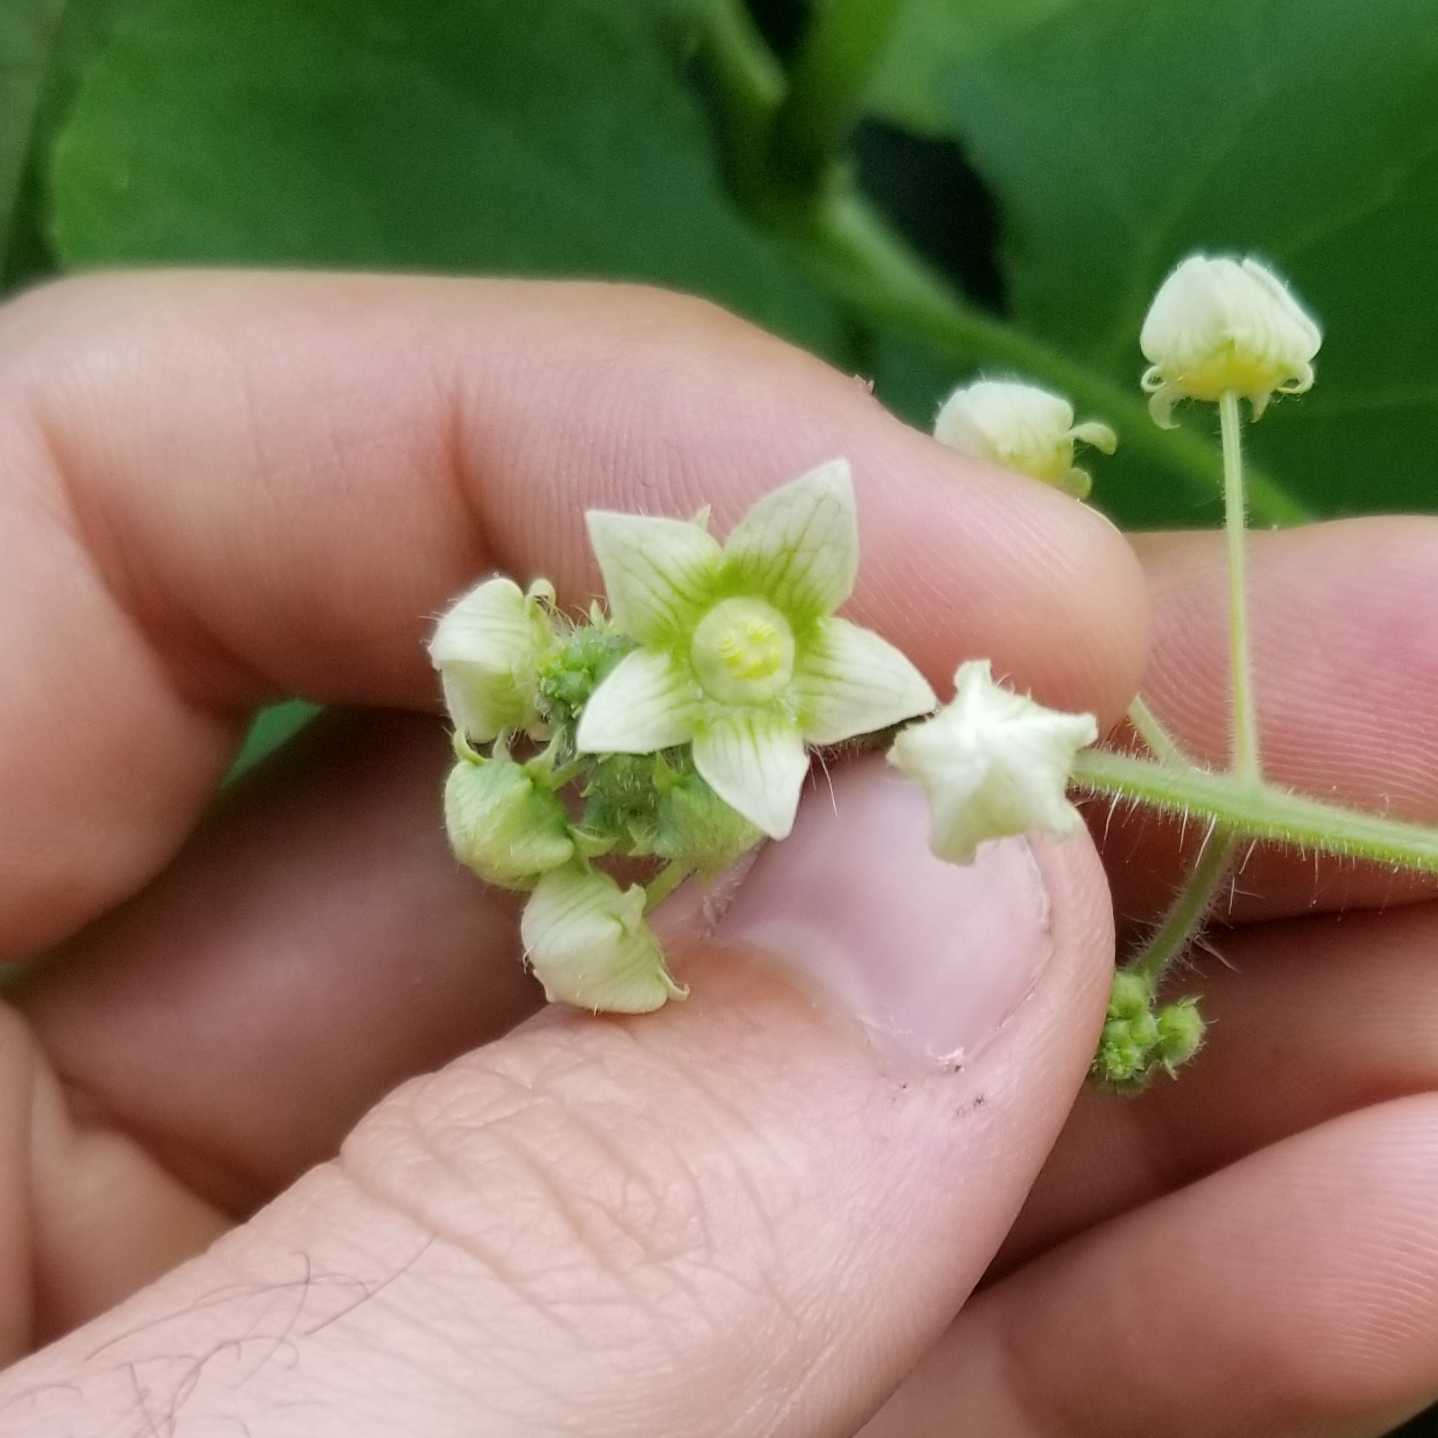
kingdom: Plantae
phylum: Tracheophyta
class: Magnoliopsida
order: Cucurbitales
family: Cucurbitaceae
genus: Sicyos
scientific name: Sicyos angulatus
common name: Angled burr cucumber
